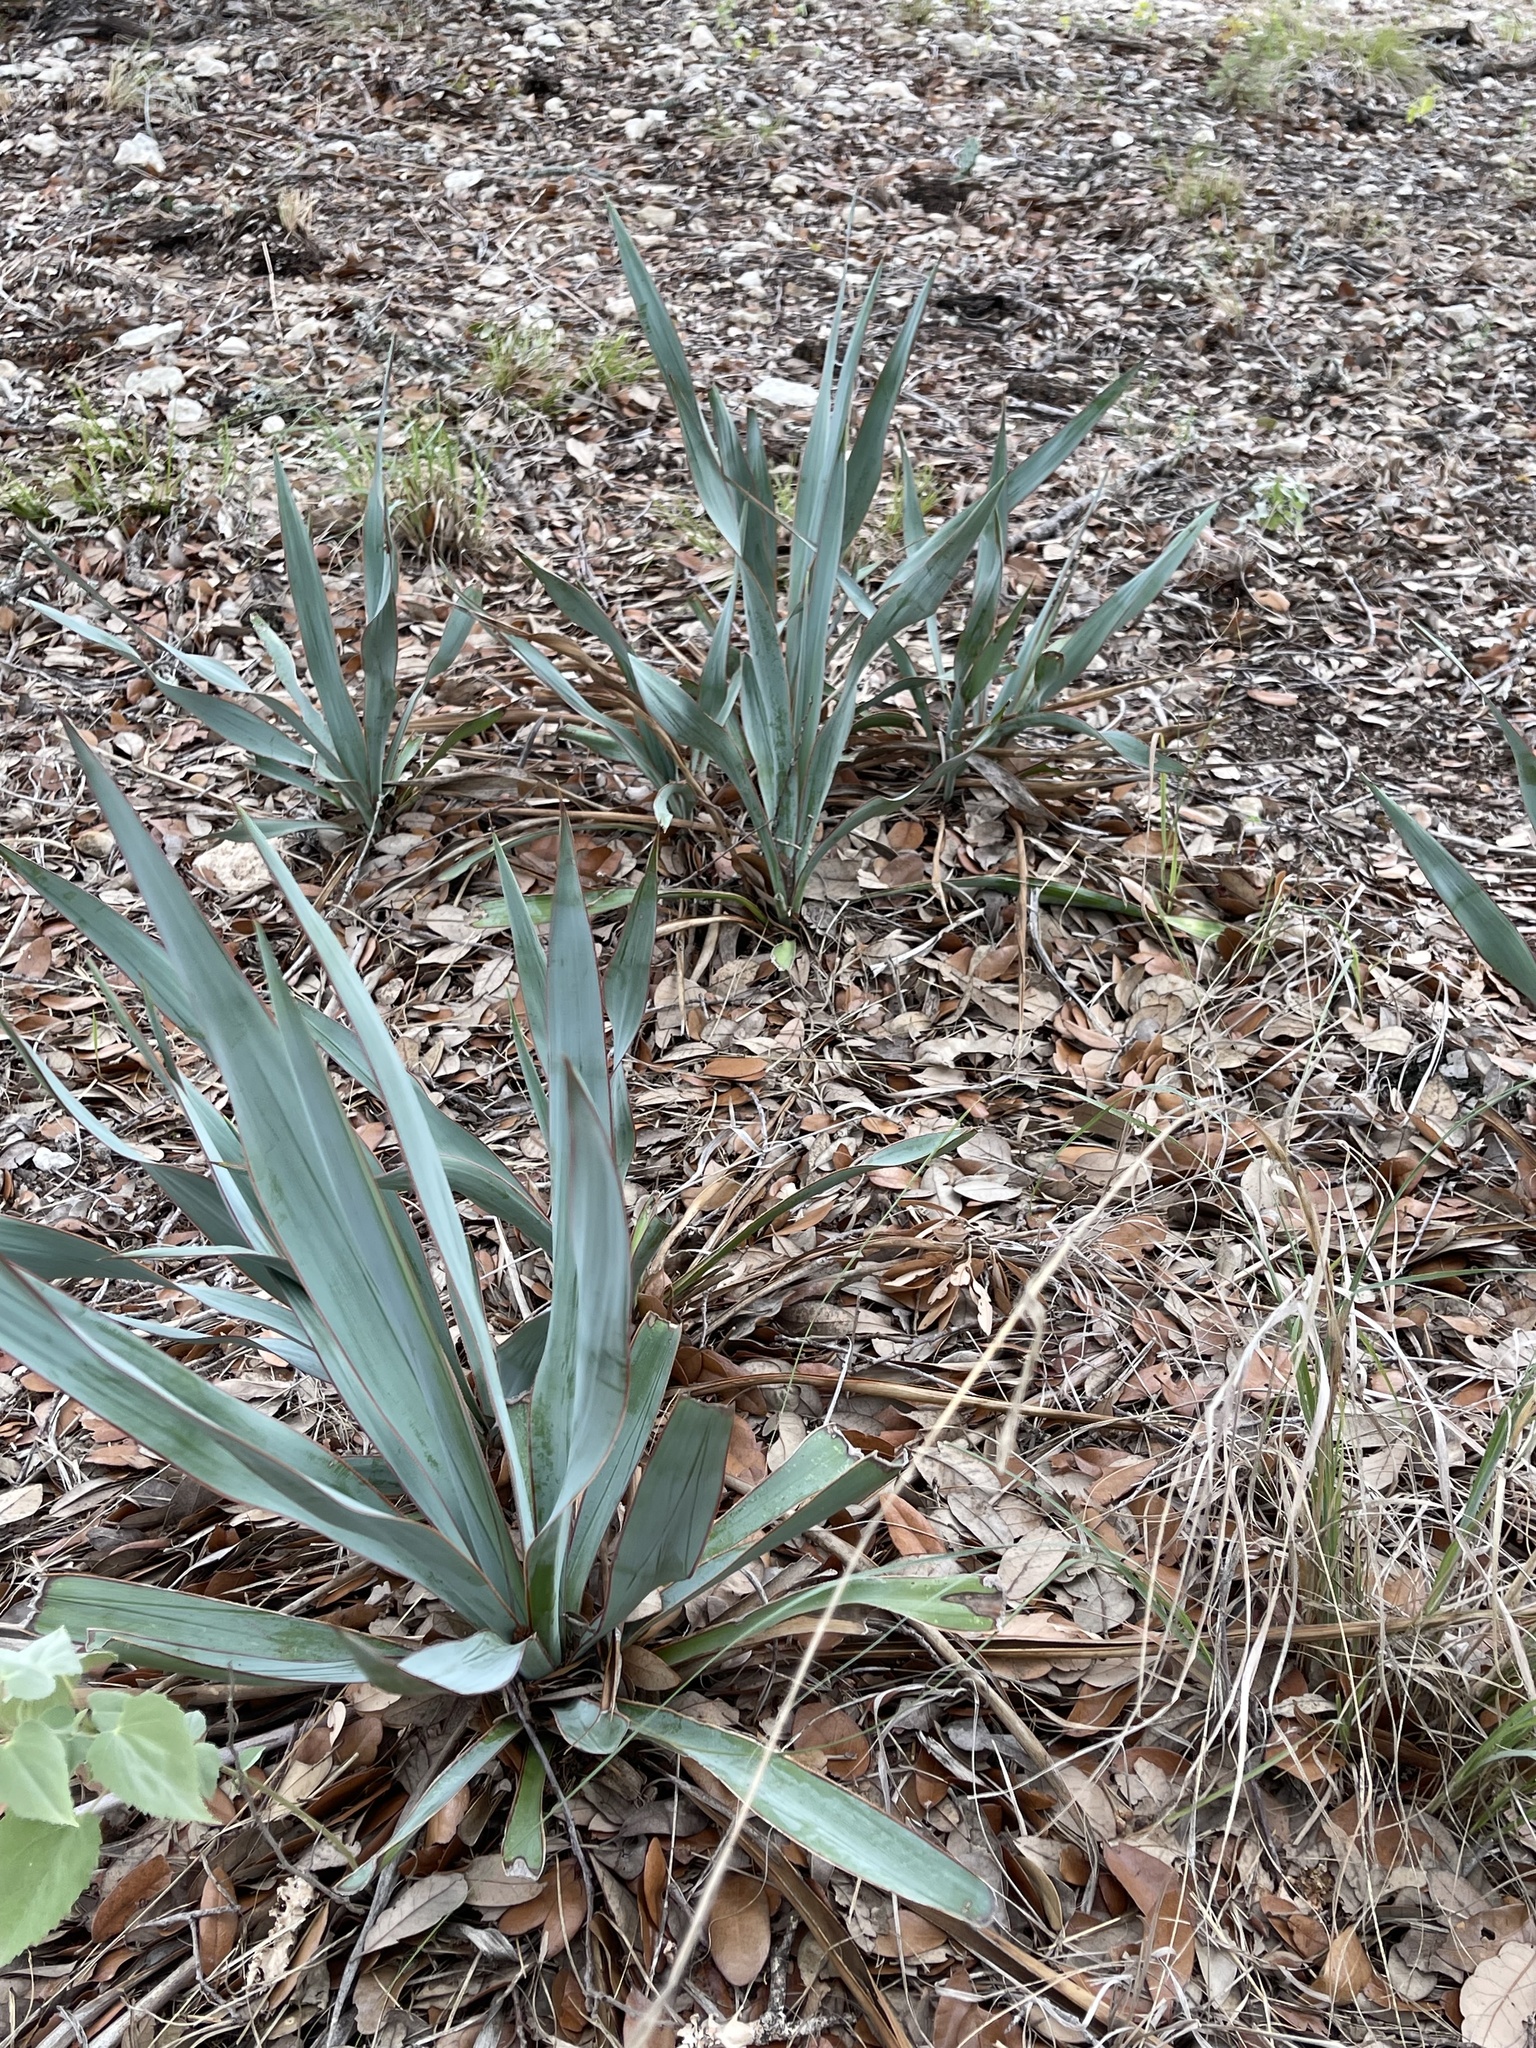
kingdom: Plantae
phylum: Tracheophyta
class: Liliopsida
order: Asparagales
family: Asparagaceae
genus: Yucca
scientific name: Yucca pallida
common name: Pale leaf yucca
